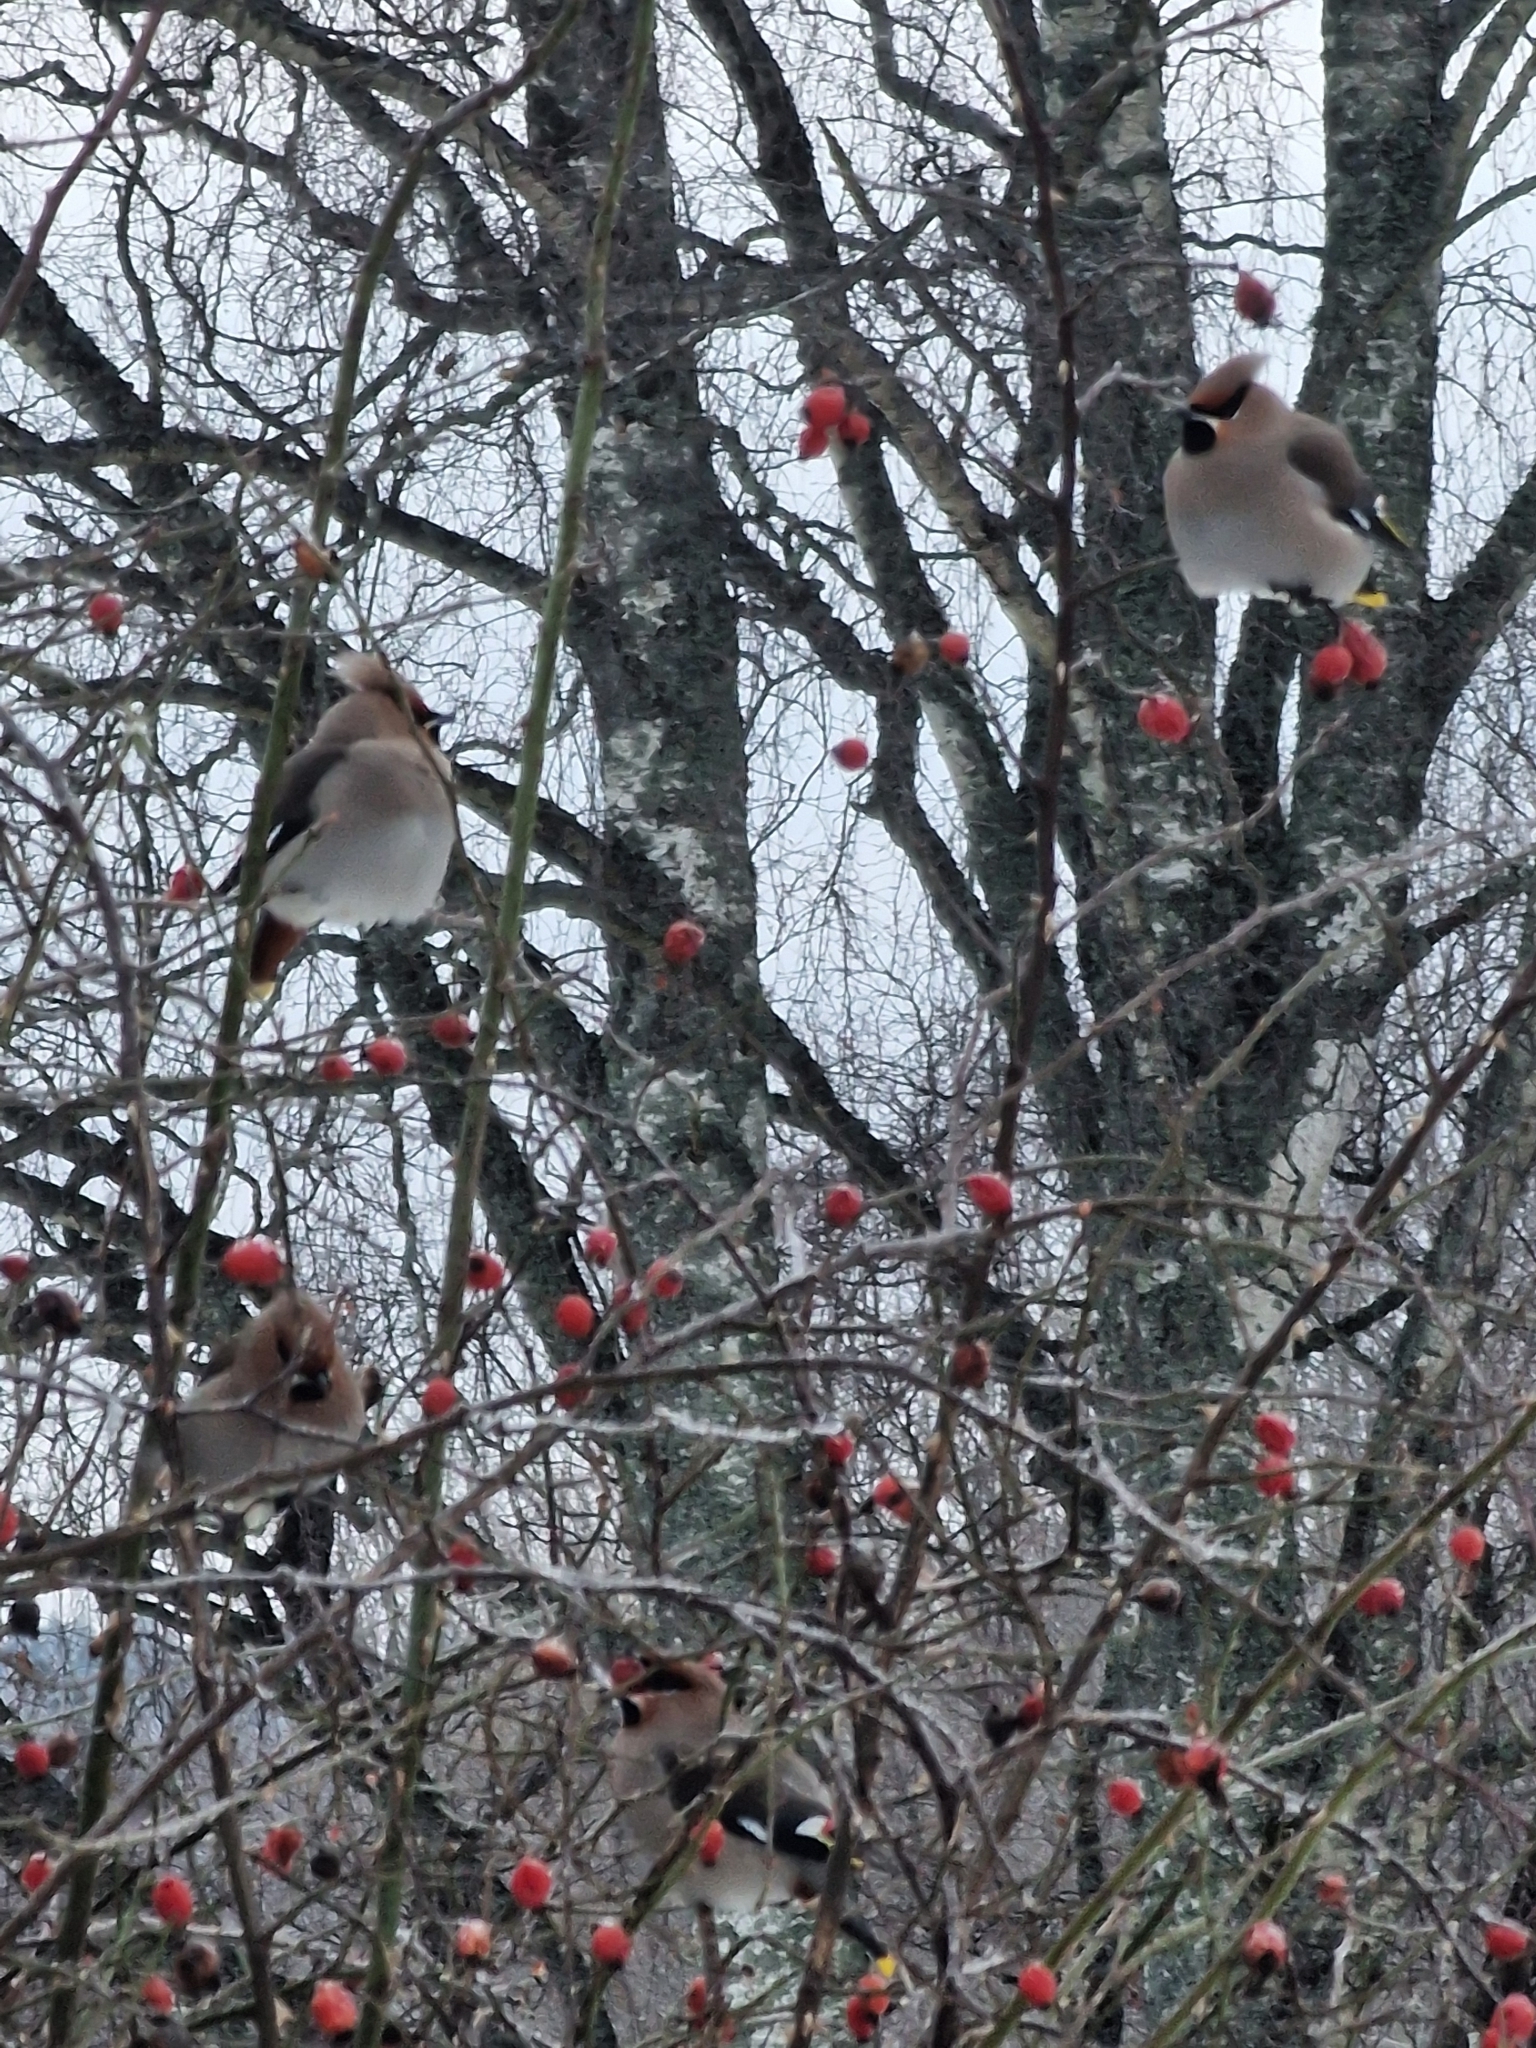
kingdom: Animalia
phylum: Chordata
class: Aves
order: Passeriformes
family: Bombycillidae
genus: Bombycilla
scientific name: Bombycilla garrulus
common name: Bohemian waxwing
